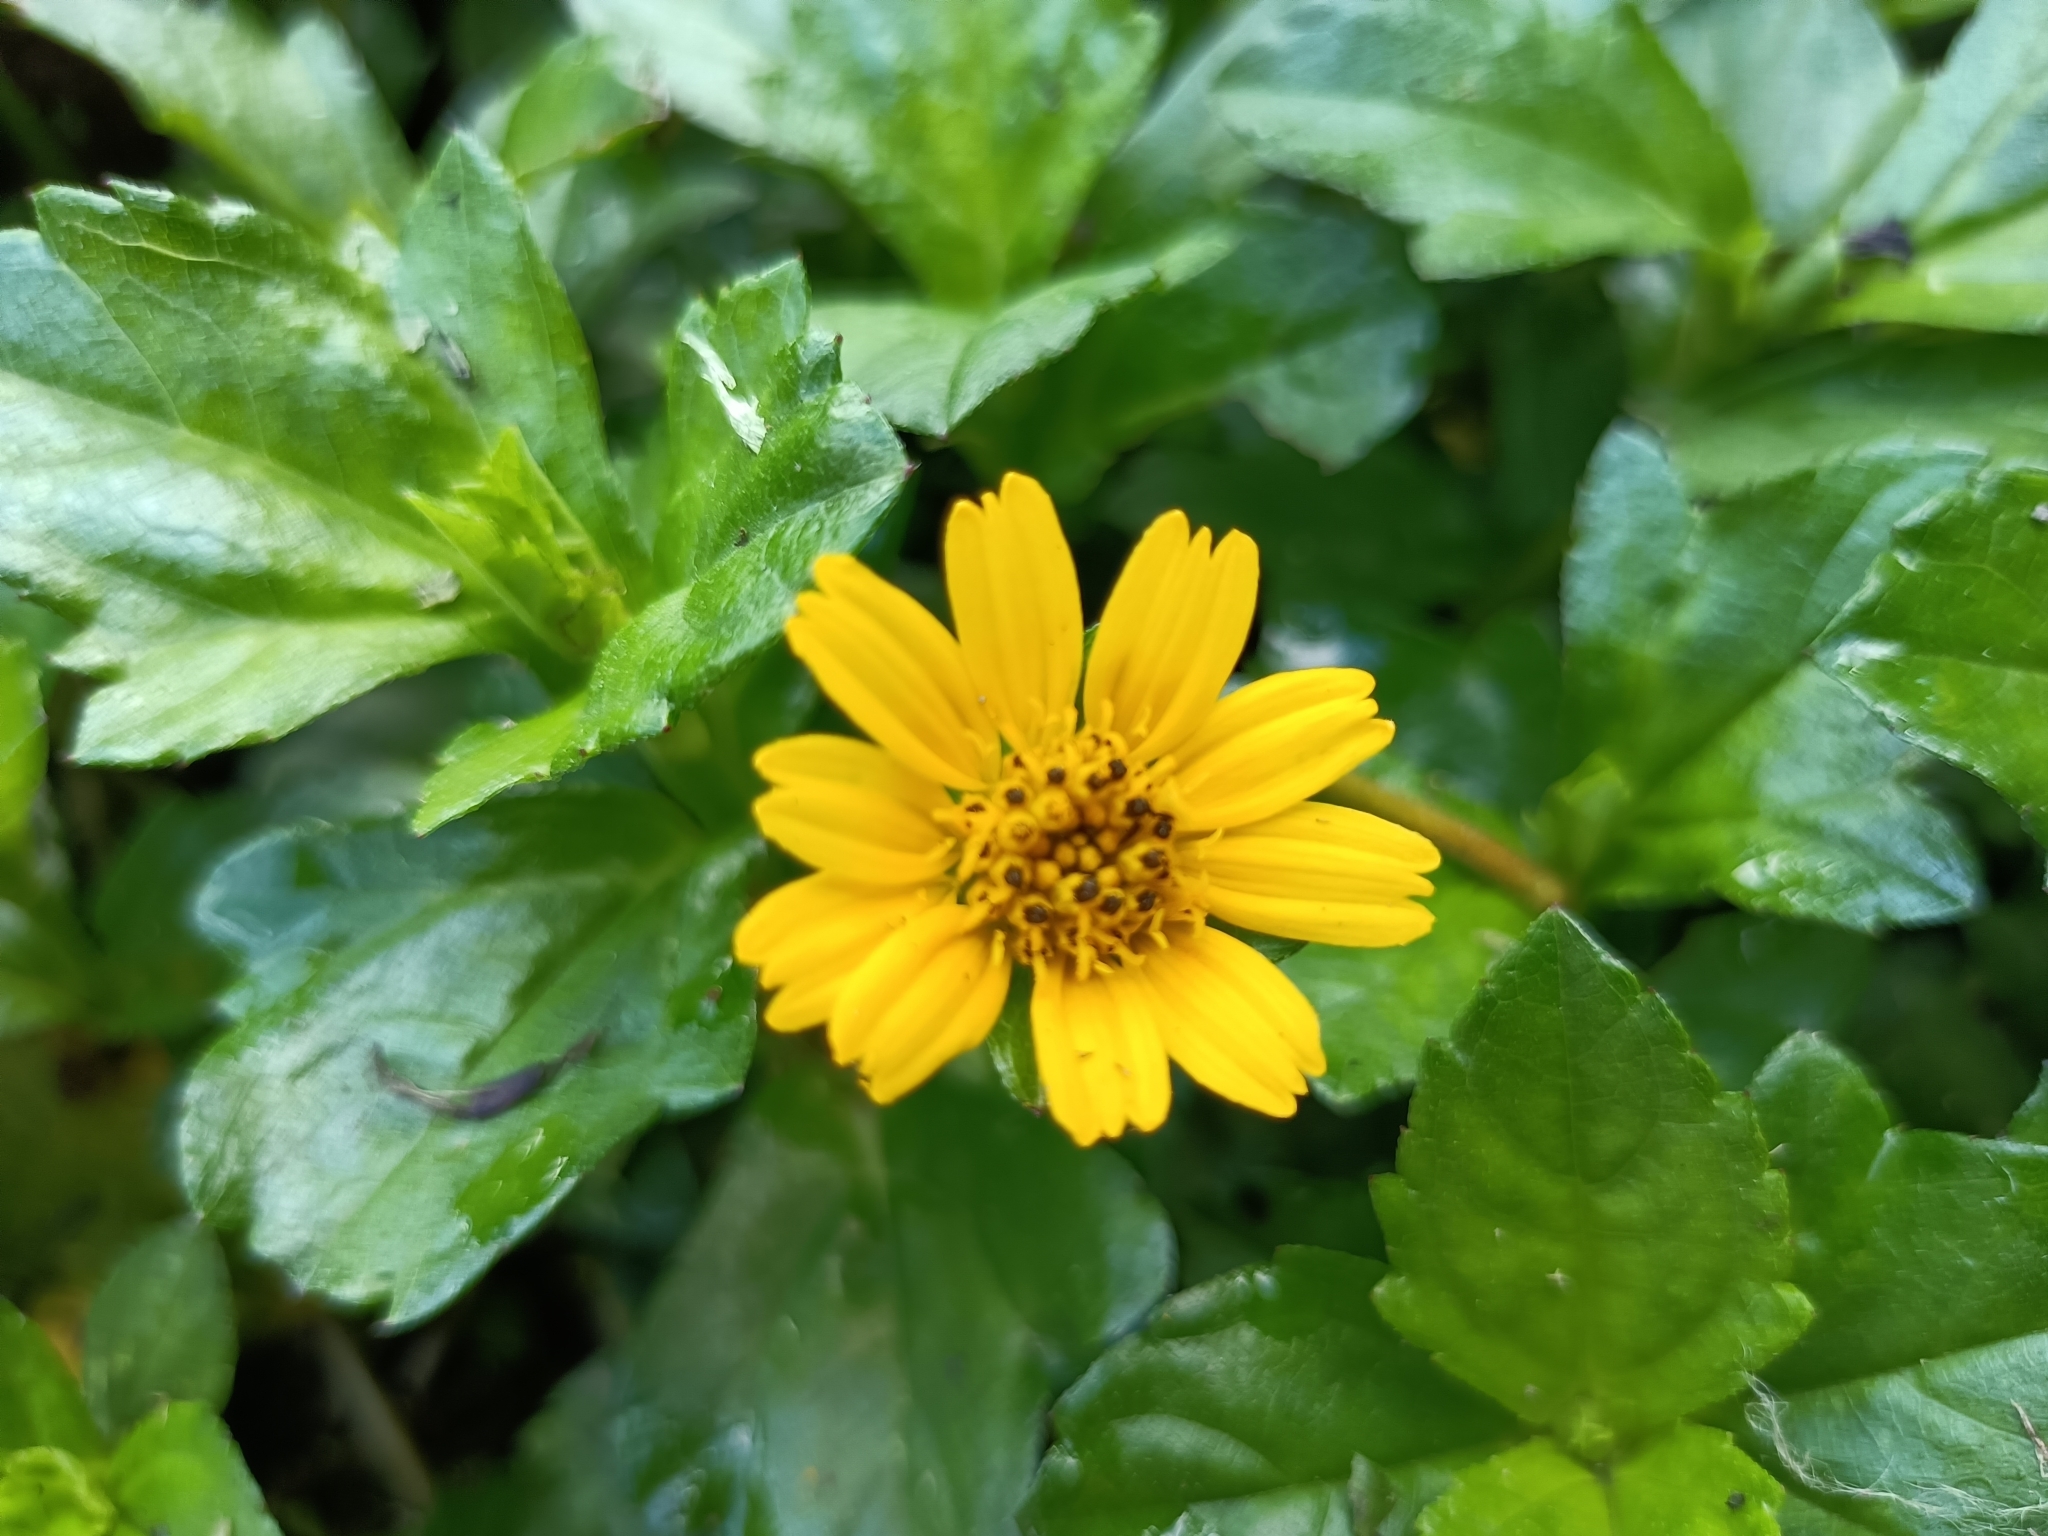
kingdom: Plantae
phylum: Tracheophyta
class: Magnoliopsida
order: Asterales
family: Asteraceae
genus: Sphagneticola
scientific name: Sphagneticola trilobata
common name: Bay biscayne creeping-oxeye
